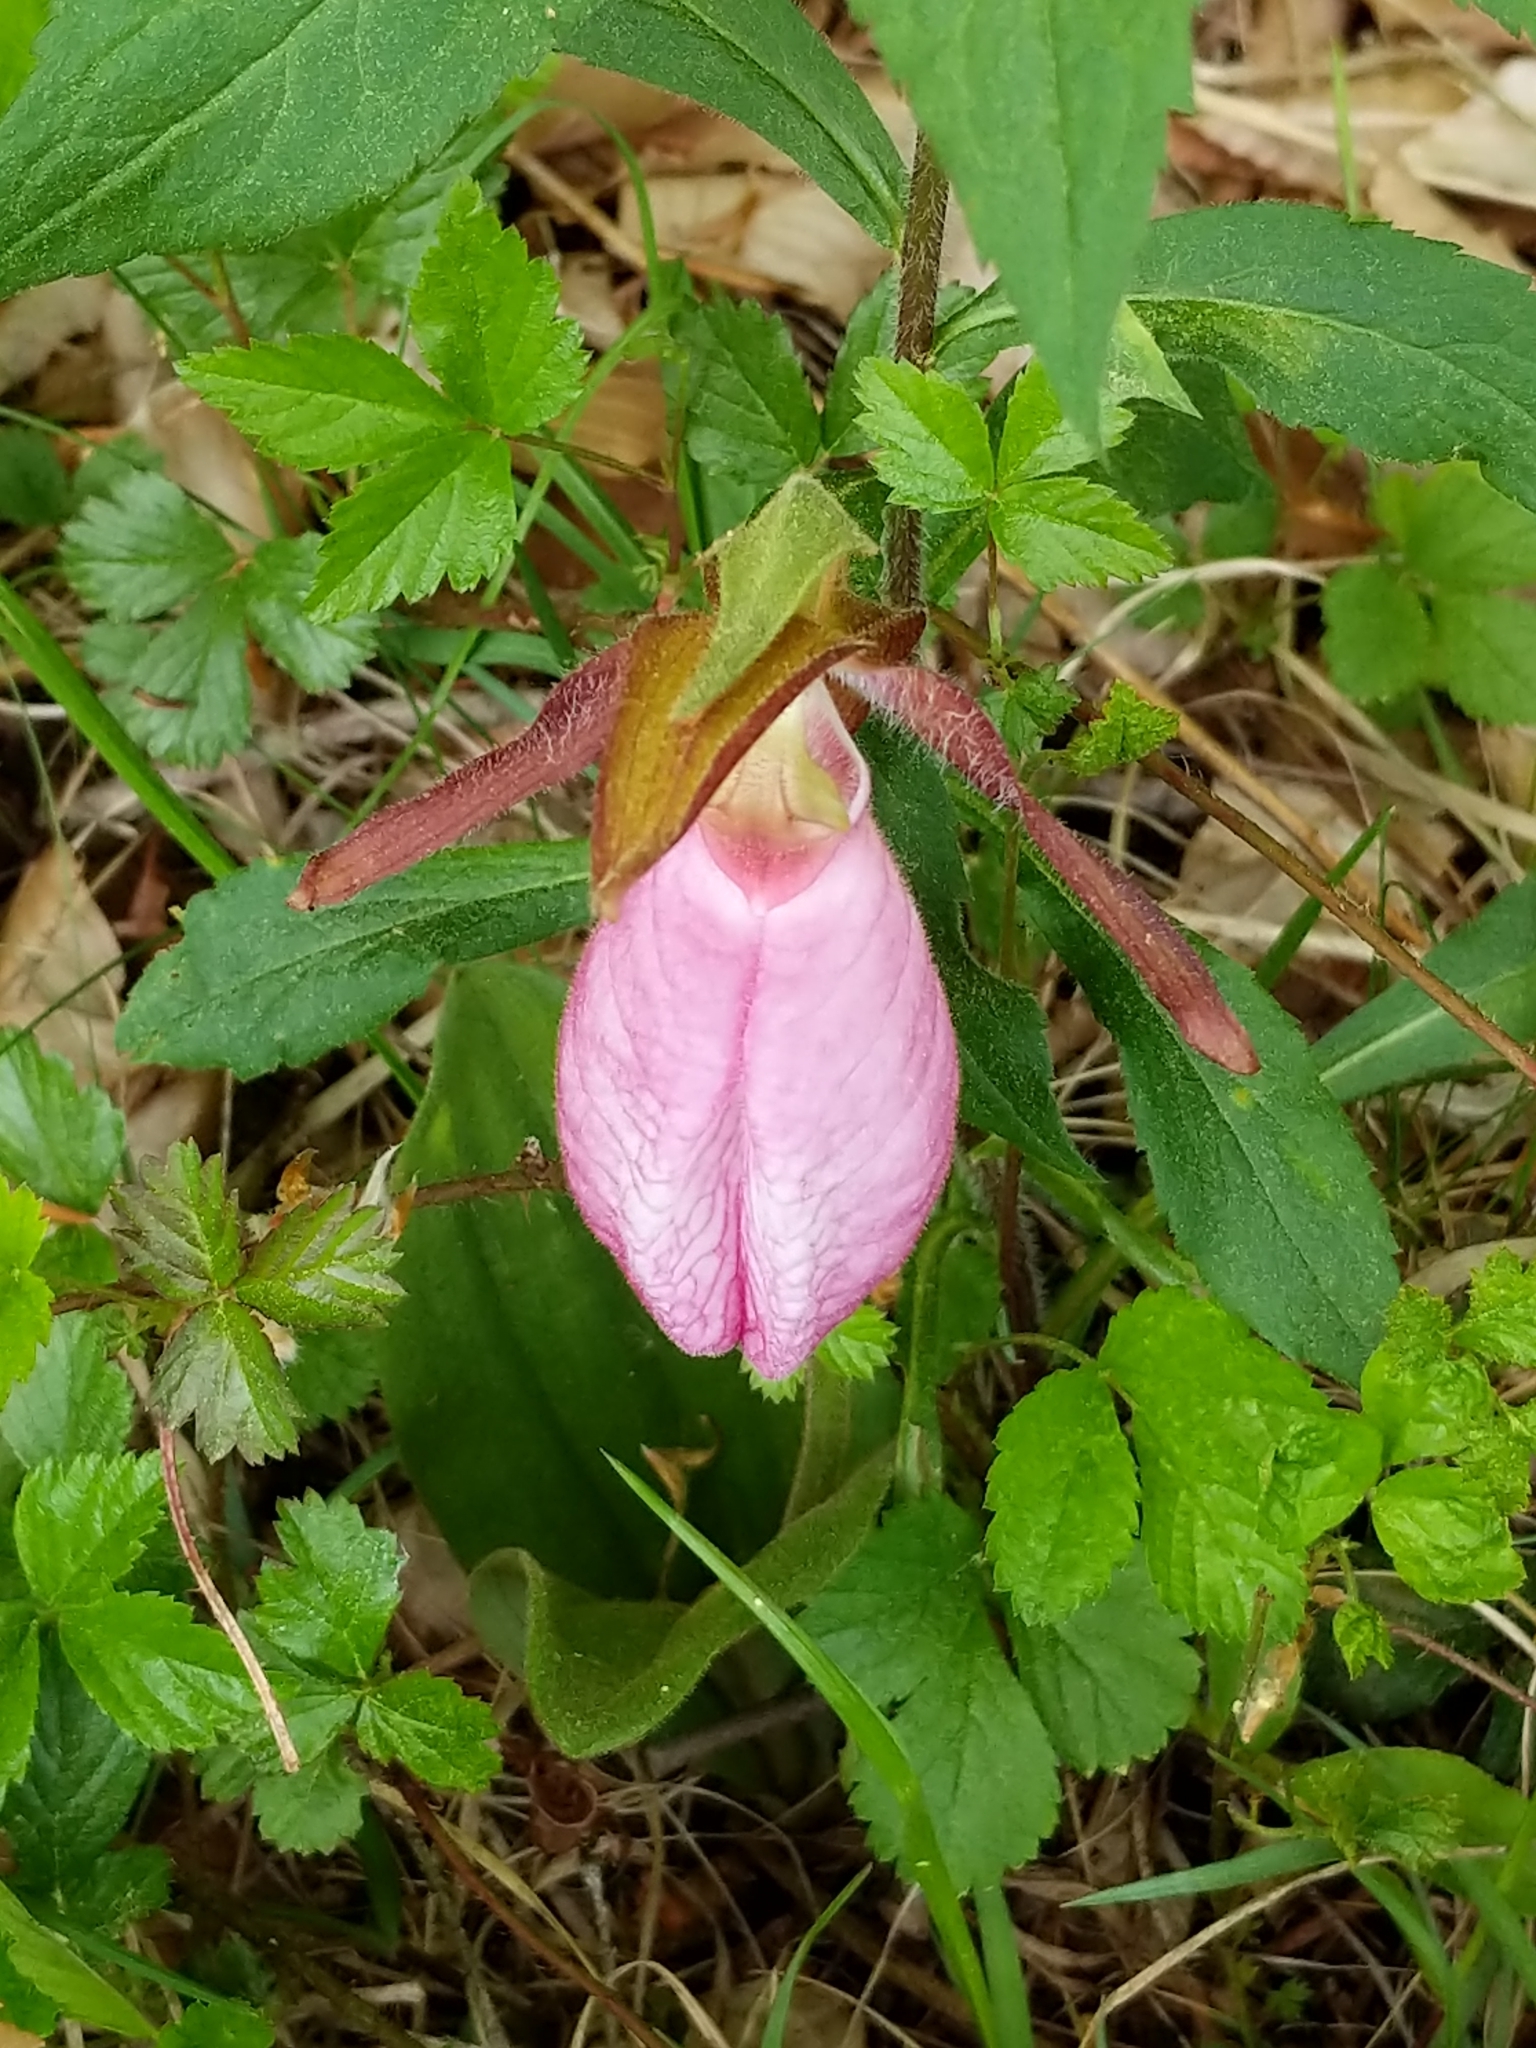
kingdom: Plantae
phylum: Tracheophyta
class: Liliopsida
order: Asparagales
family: Orchidaceae
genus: Cypripedium
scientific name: Cypripedium acaule
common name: Pink lady's-slipper
